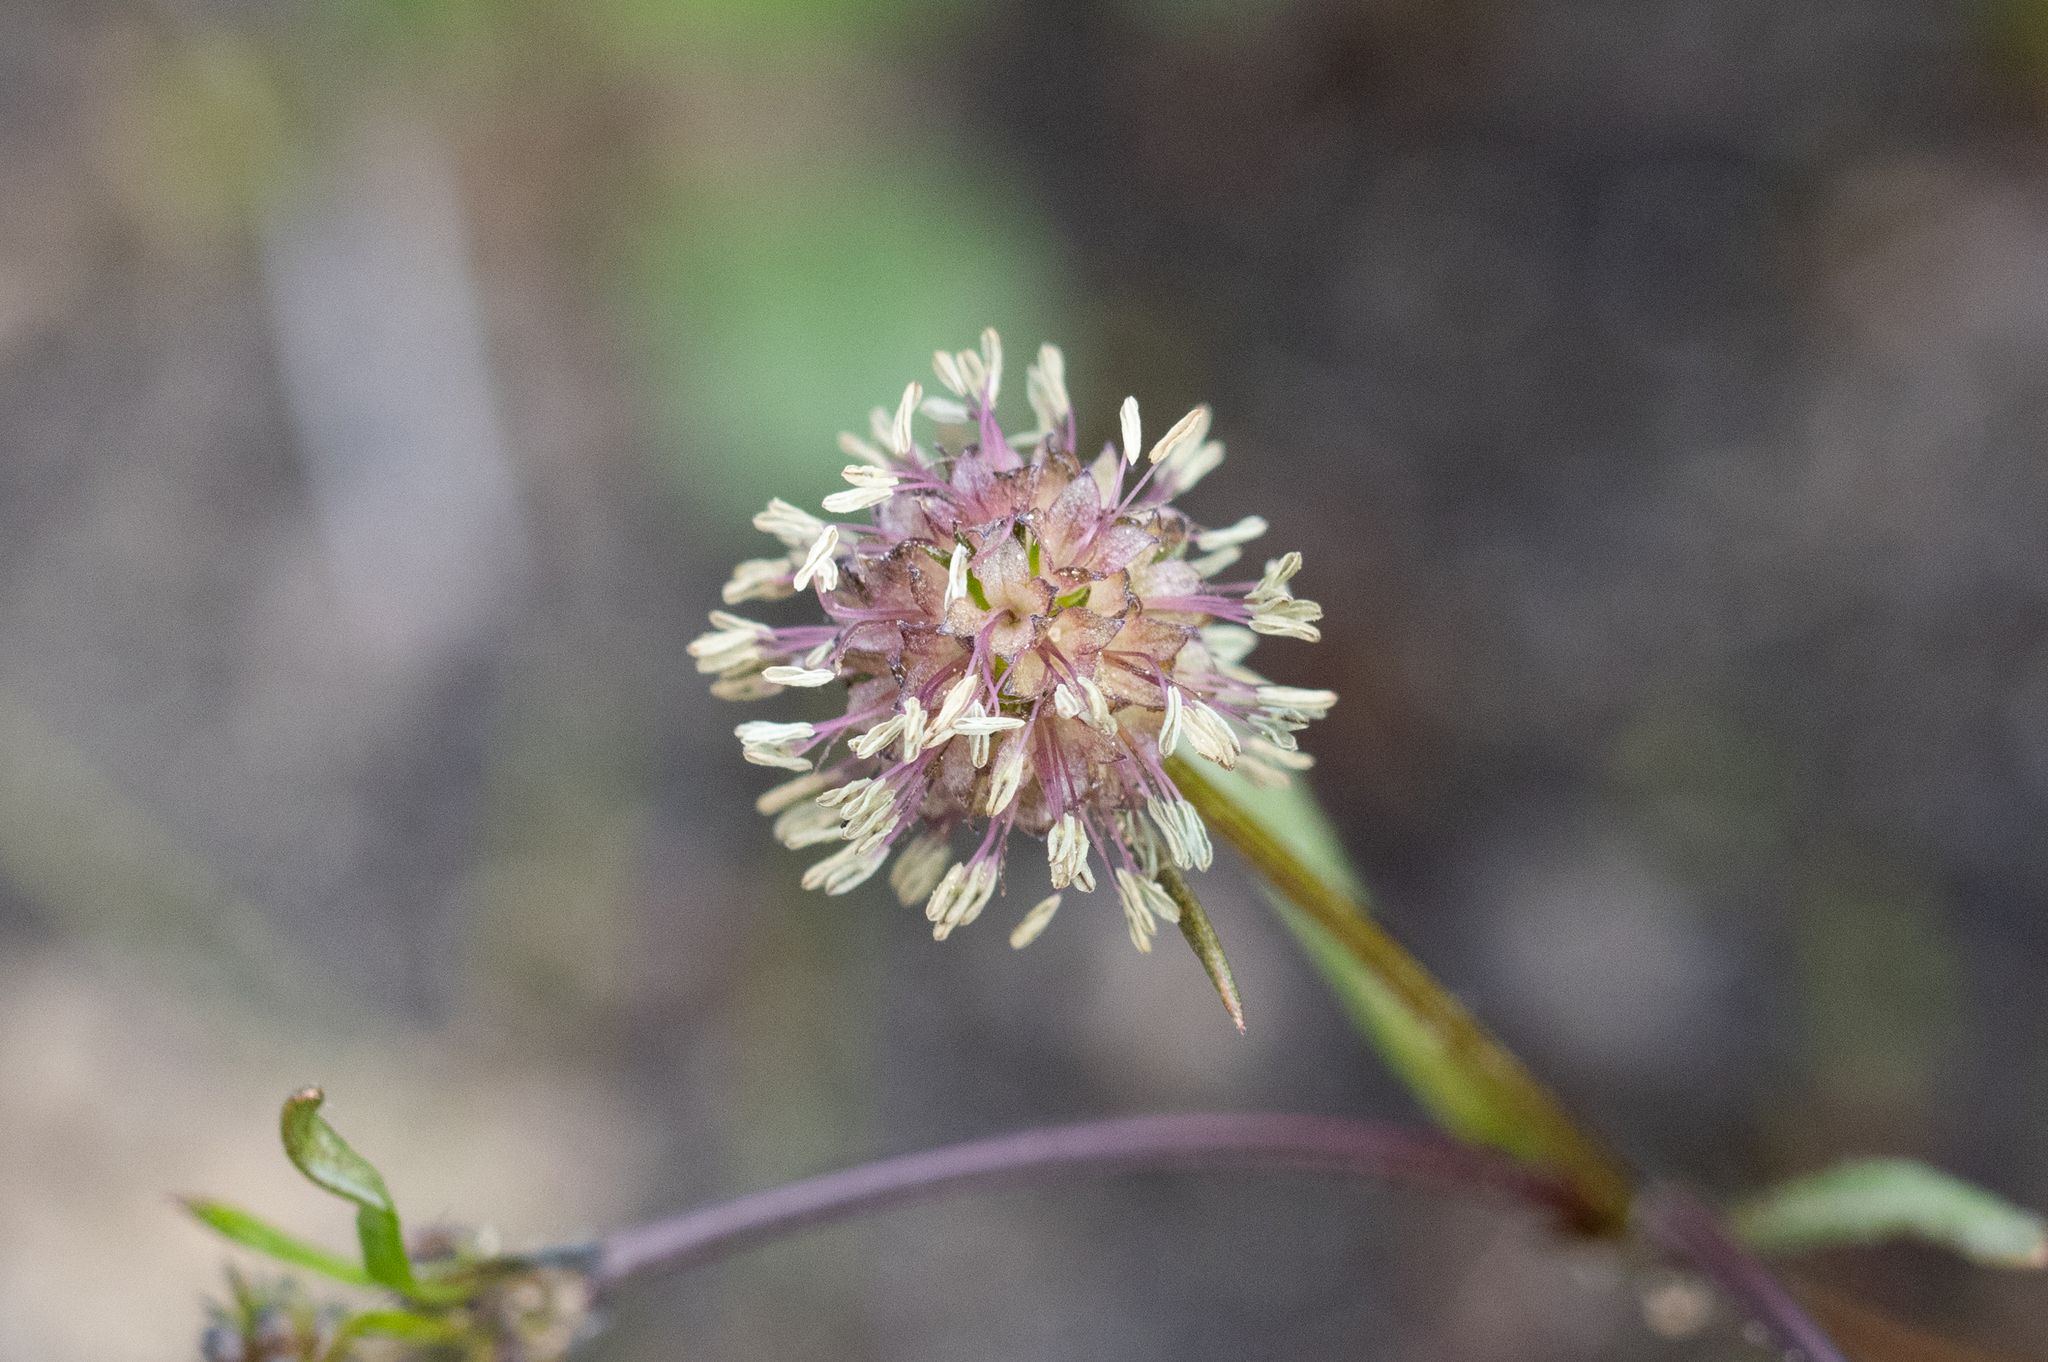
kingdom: Plantae
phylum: Tracheophyta
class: Magnoliopsida
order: Gentianales
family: Rubiaceae
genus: Opercularia
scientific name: Opercularia scabrida
